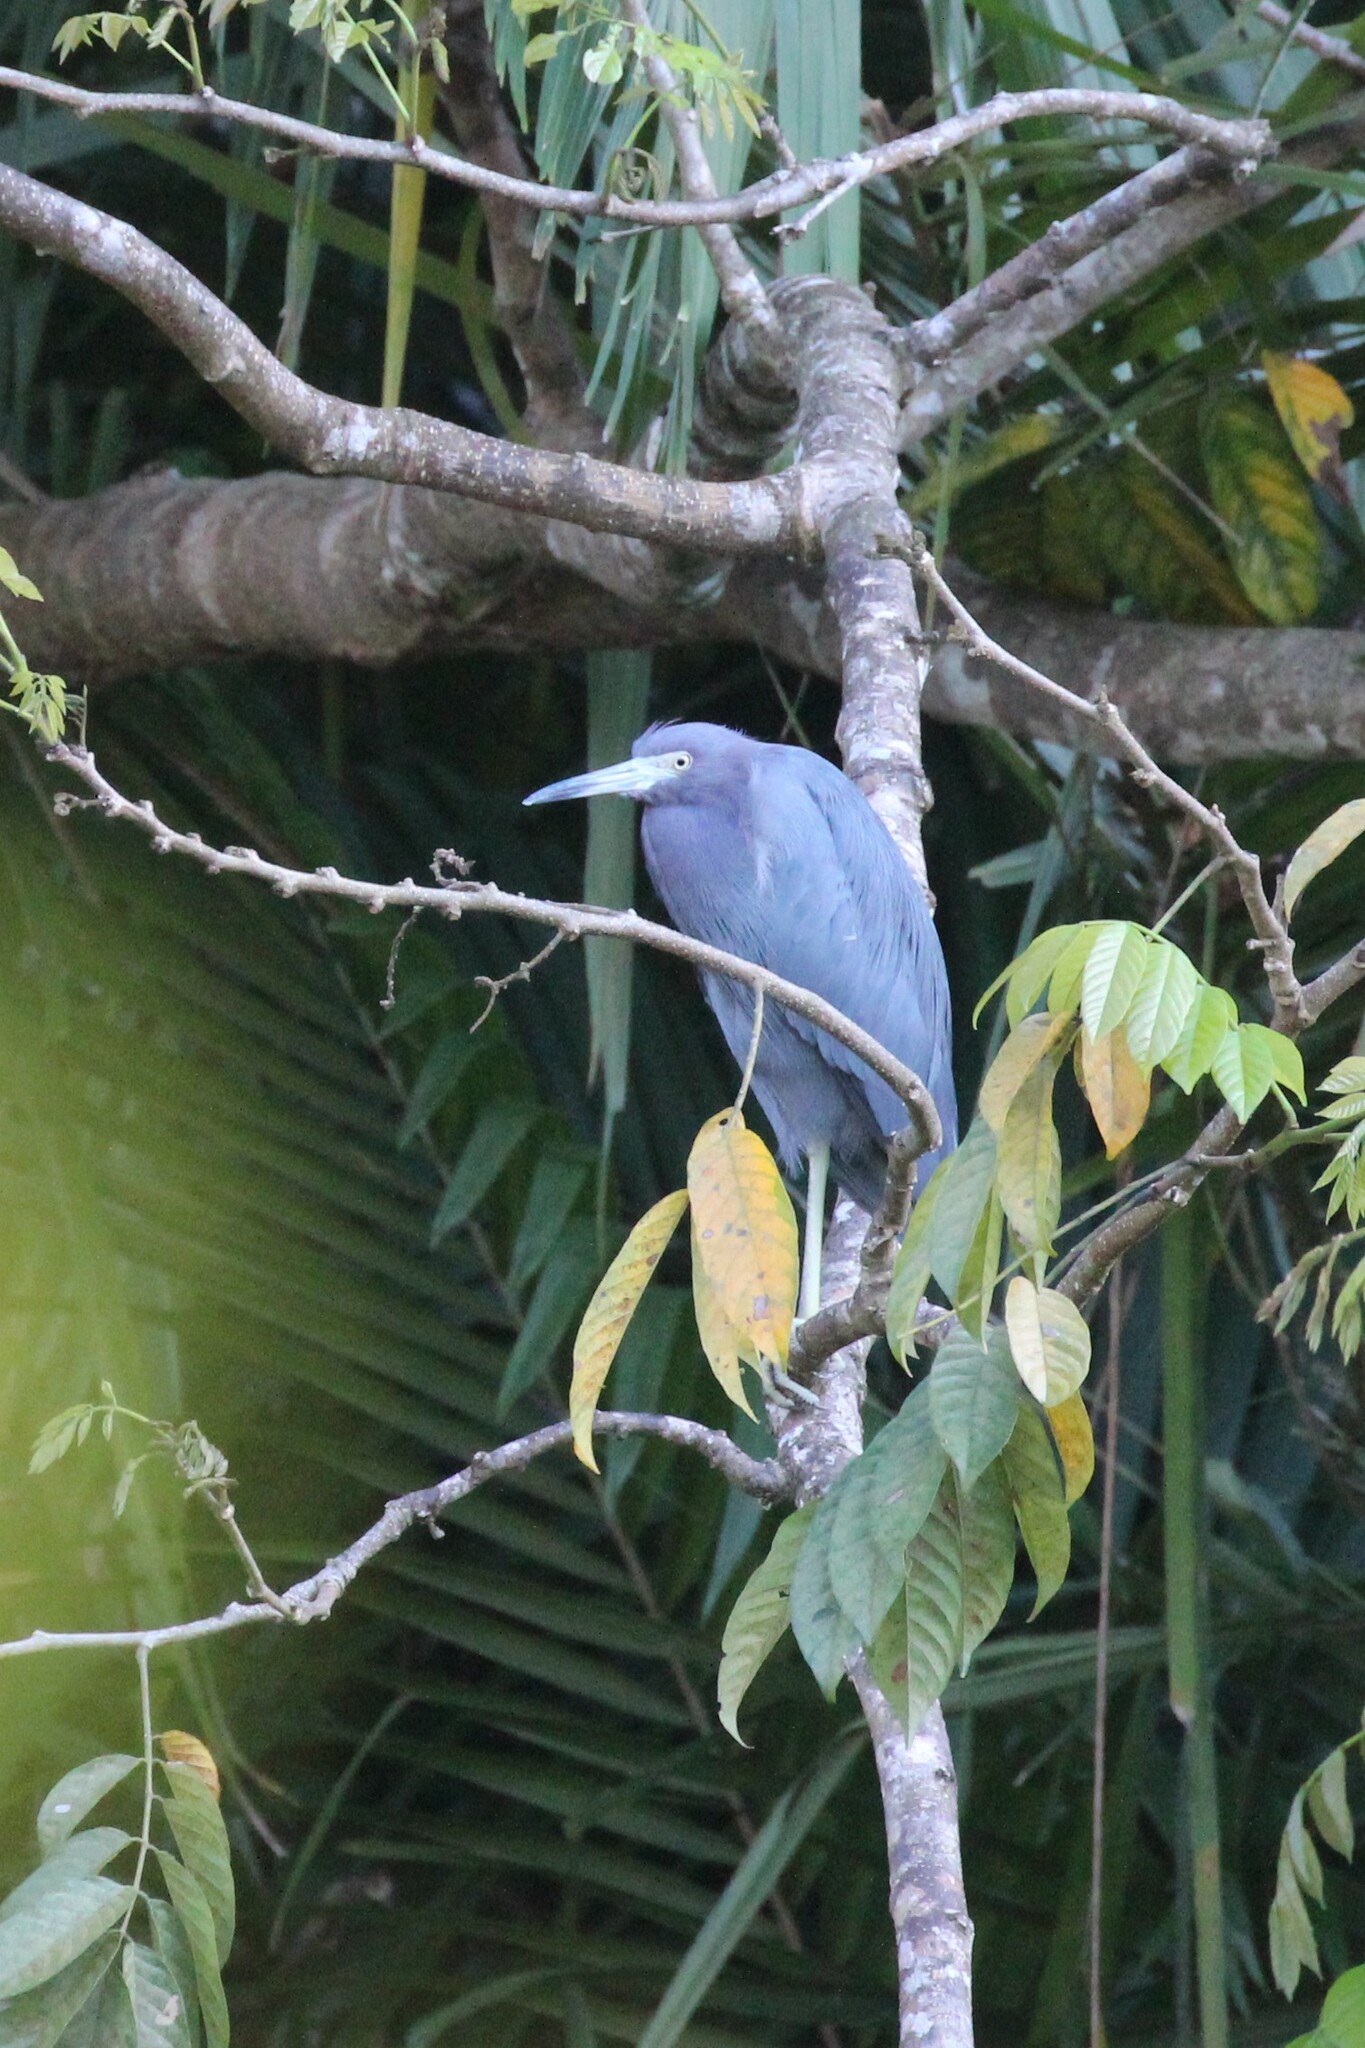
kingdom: Animalia
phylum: Chordata
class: Aves
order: Pelecaniformes
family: Ardeidae
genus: Egretta
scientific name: Egretta caerulea
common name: Little blue heron
